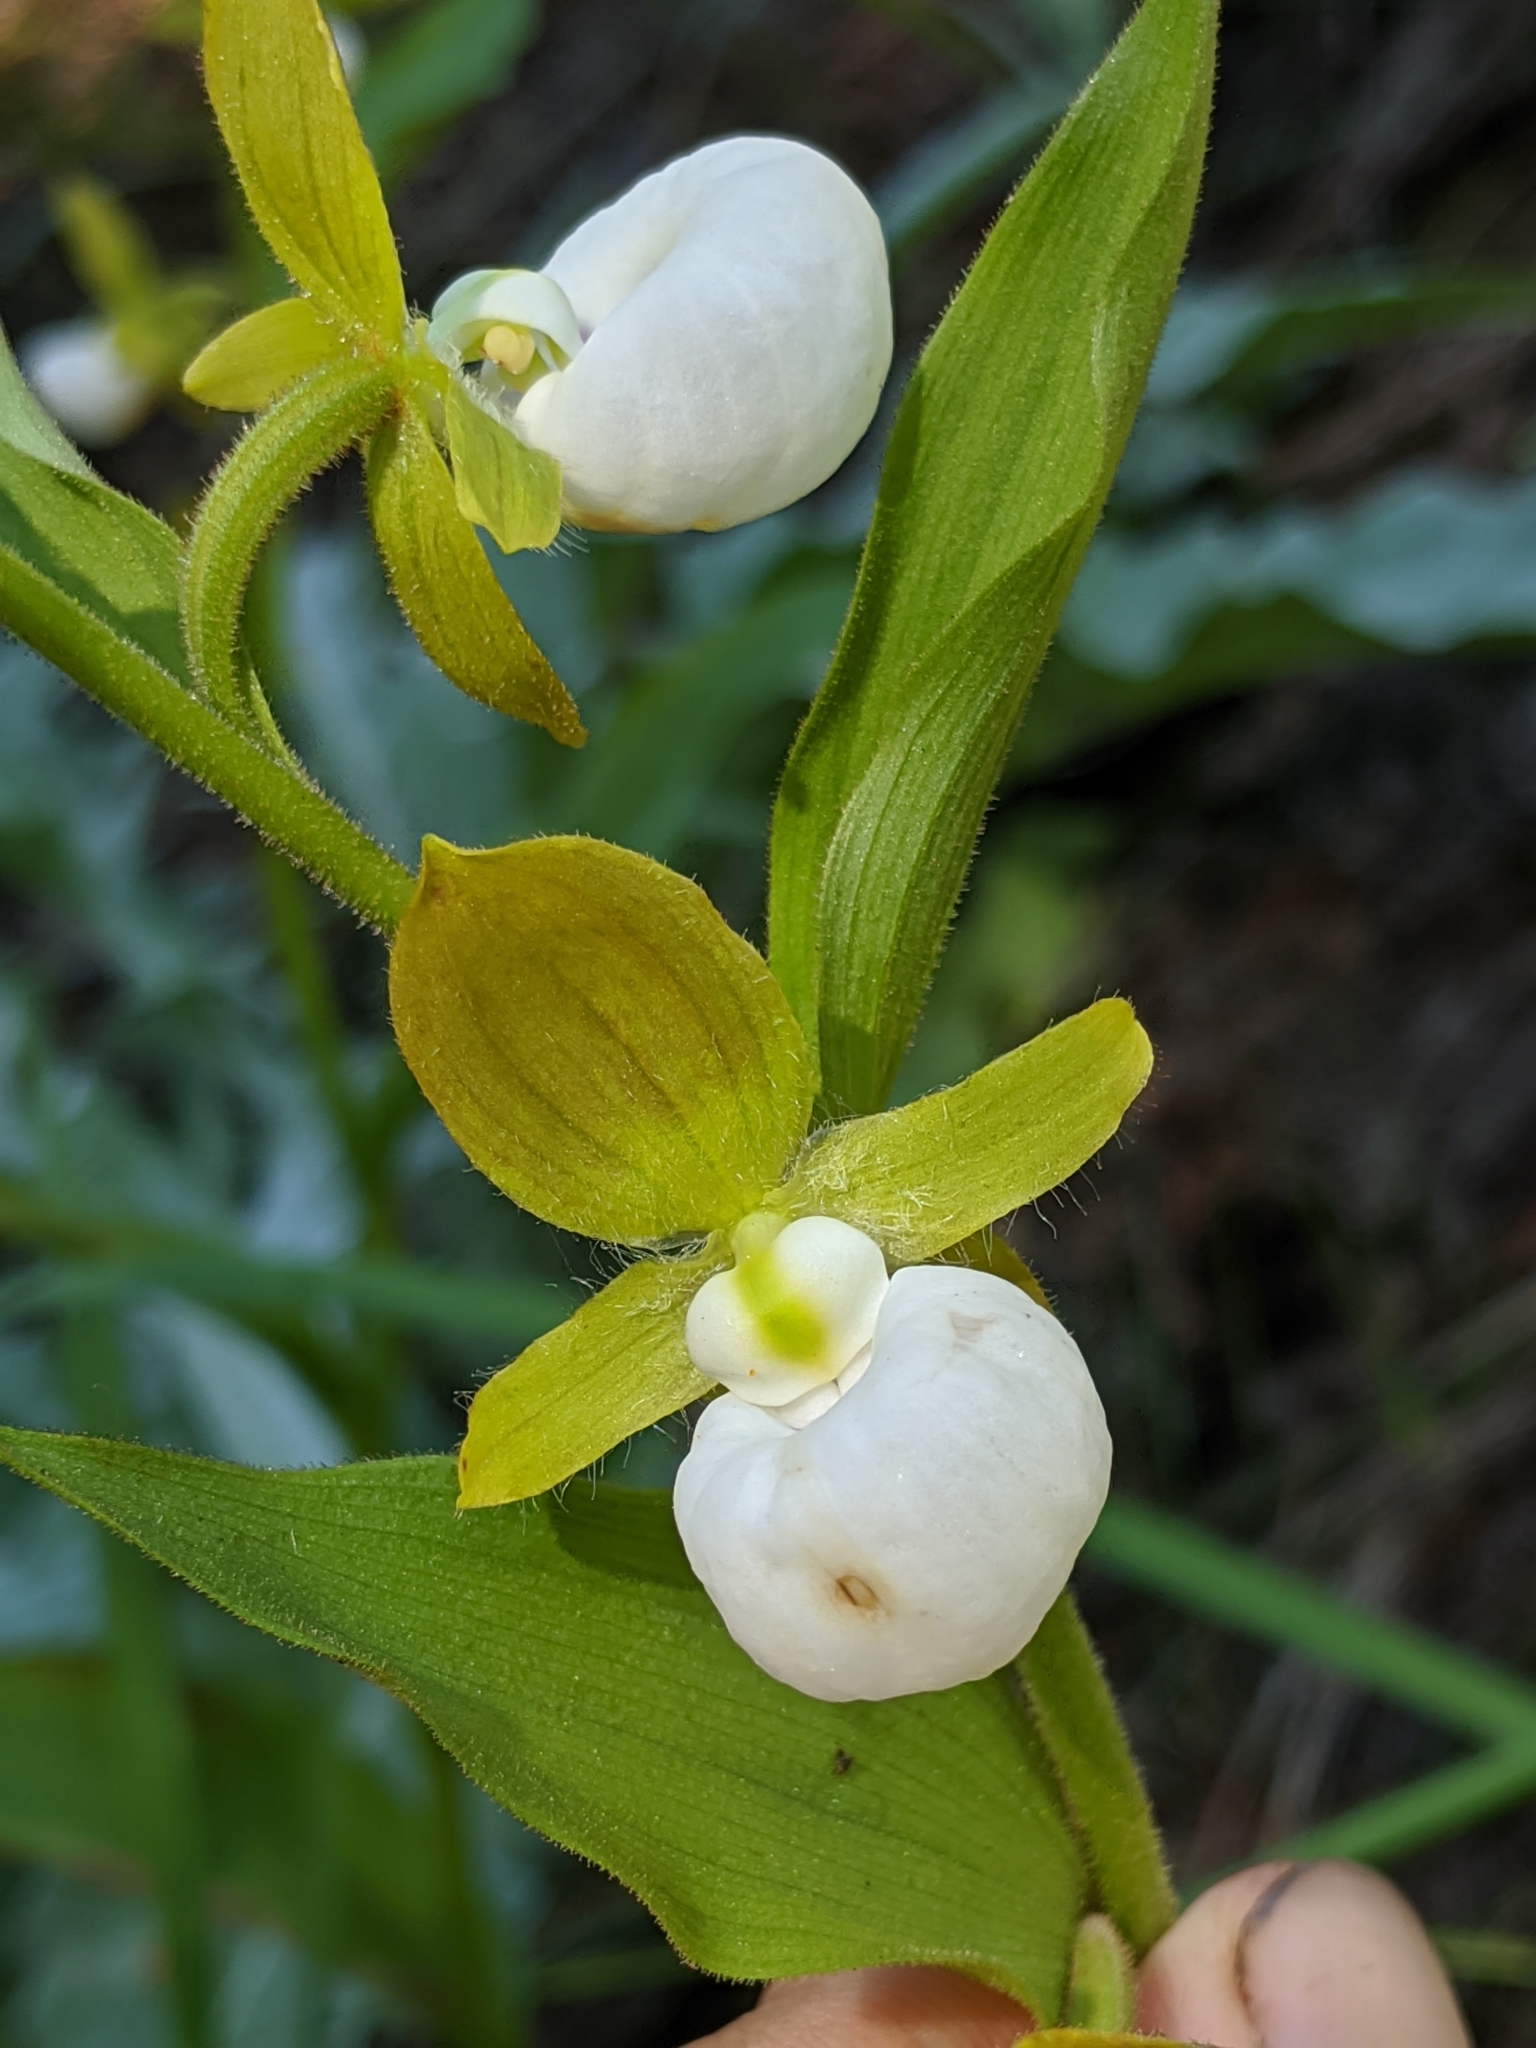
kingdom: Plantae
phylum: Tracheophyta
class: Liliopsida
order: Asparagales
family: Orchidaceae
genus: Cypripedium
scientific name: Cypripedium californicum
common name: California lady's slipper
